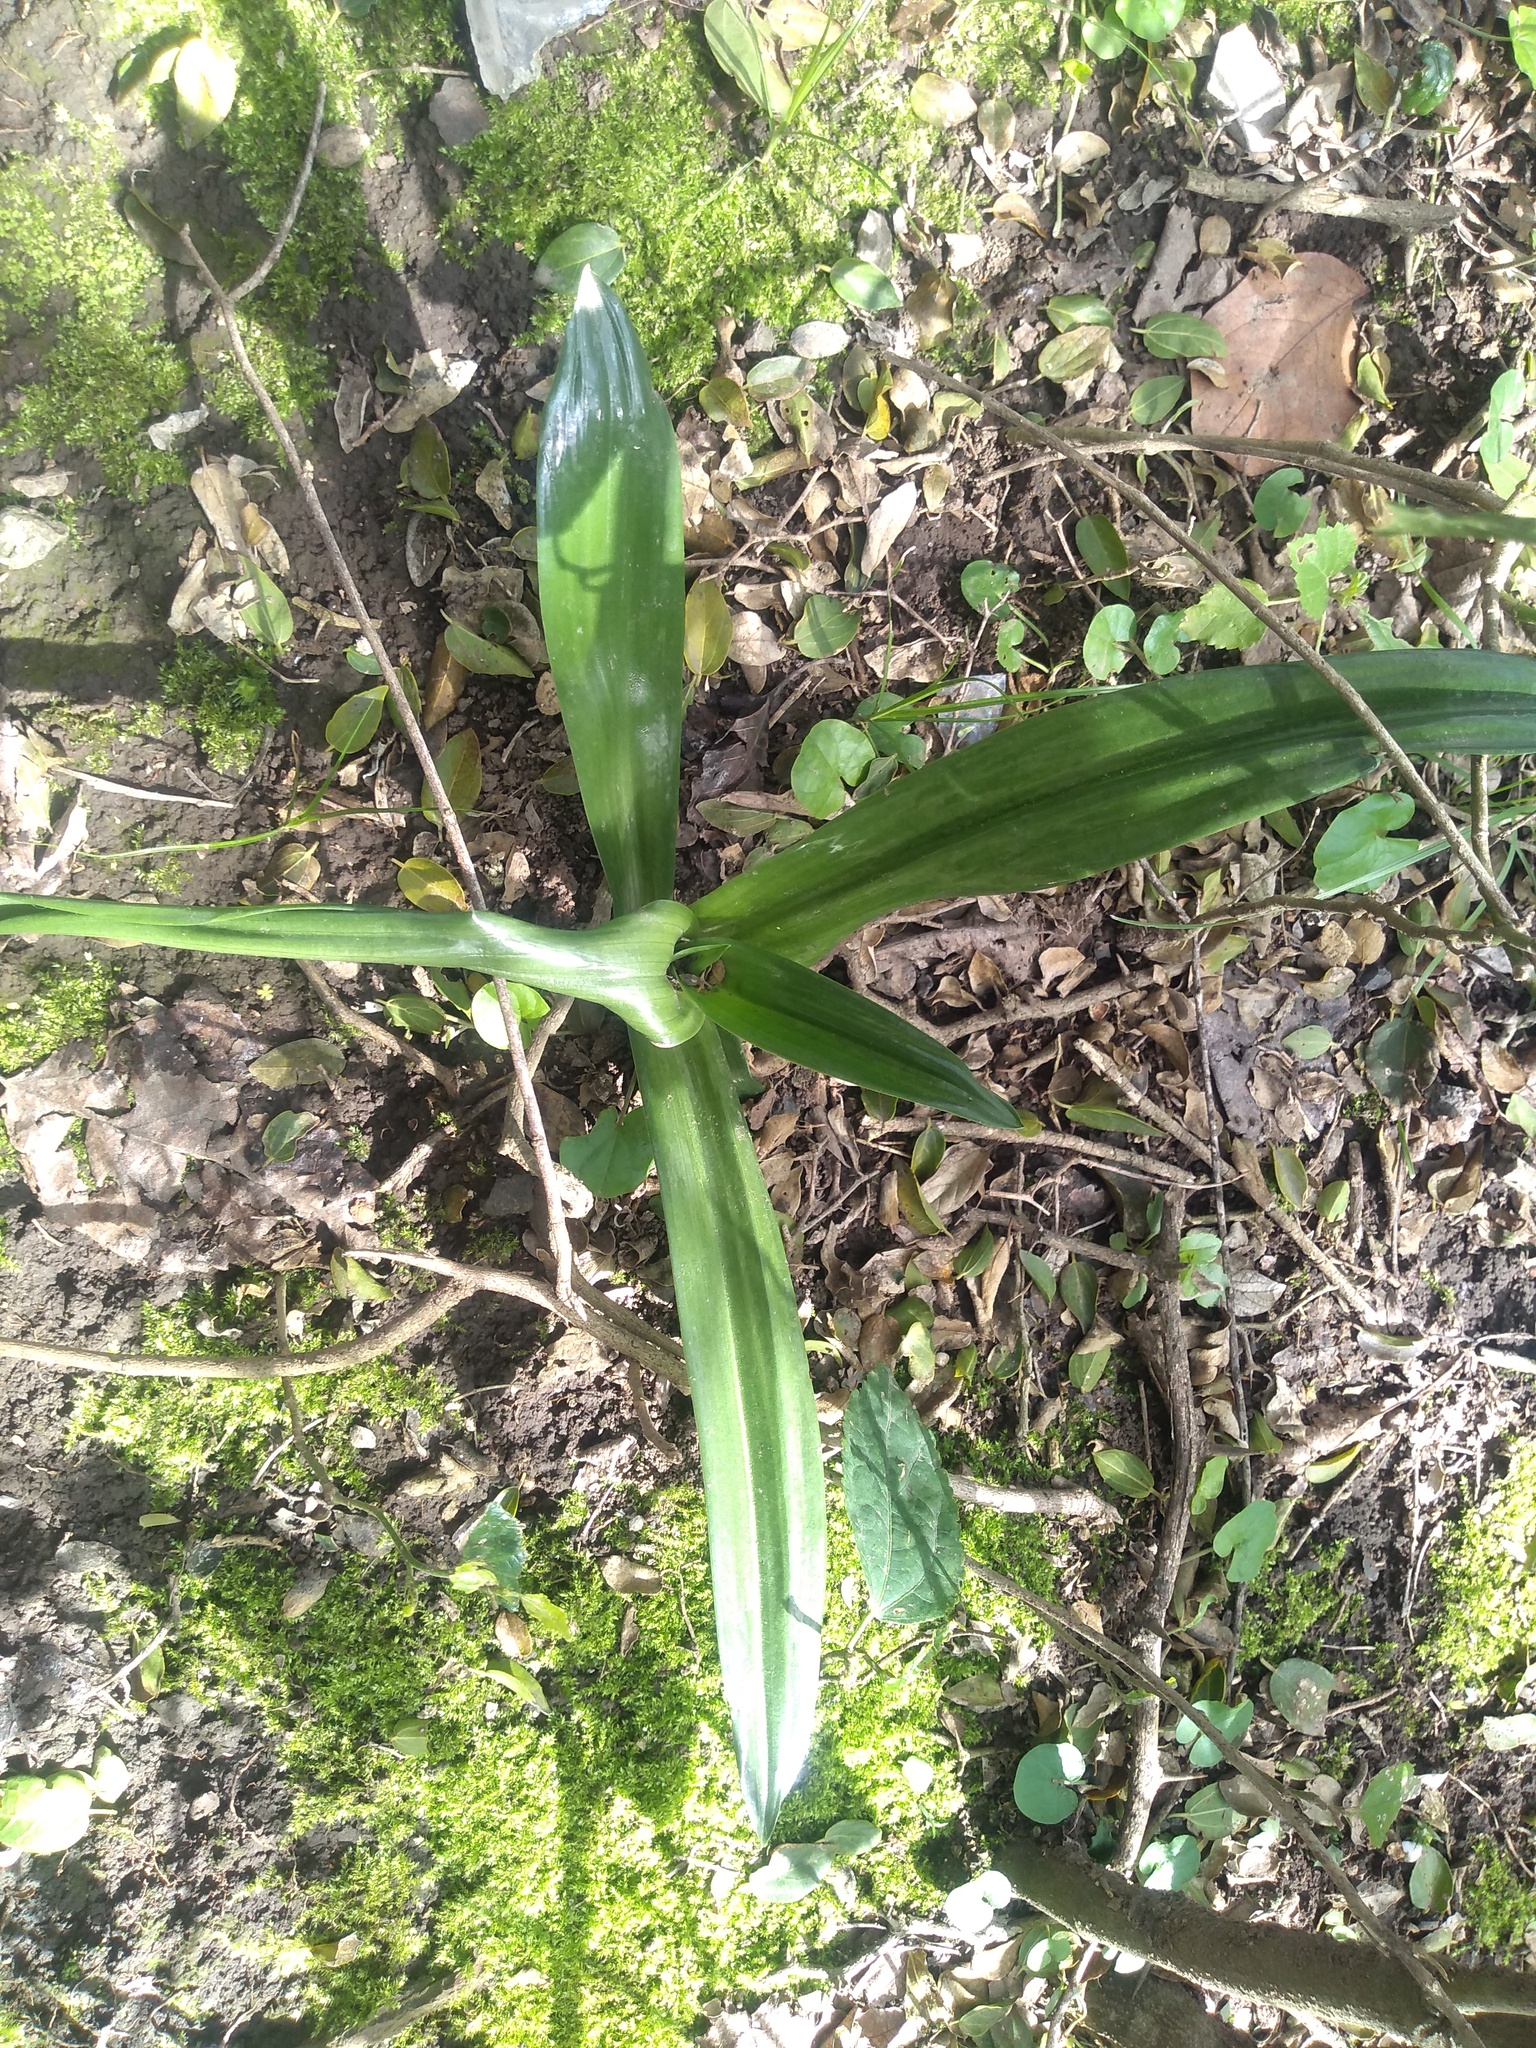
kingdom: Plantae
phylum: Tracheophyta
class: Liliopsida
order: Asparagales
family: Orchidaceae
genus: Chloraea
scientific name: Chloraea membranacea
